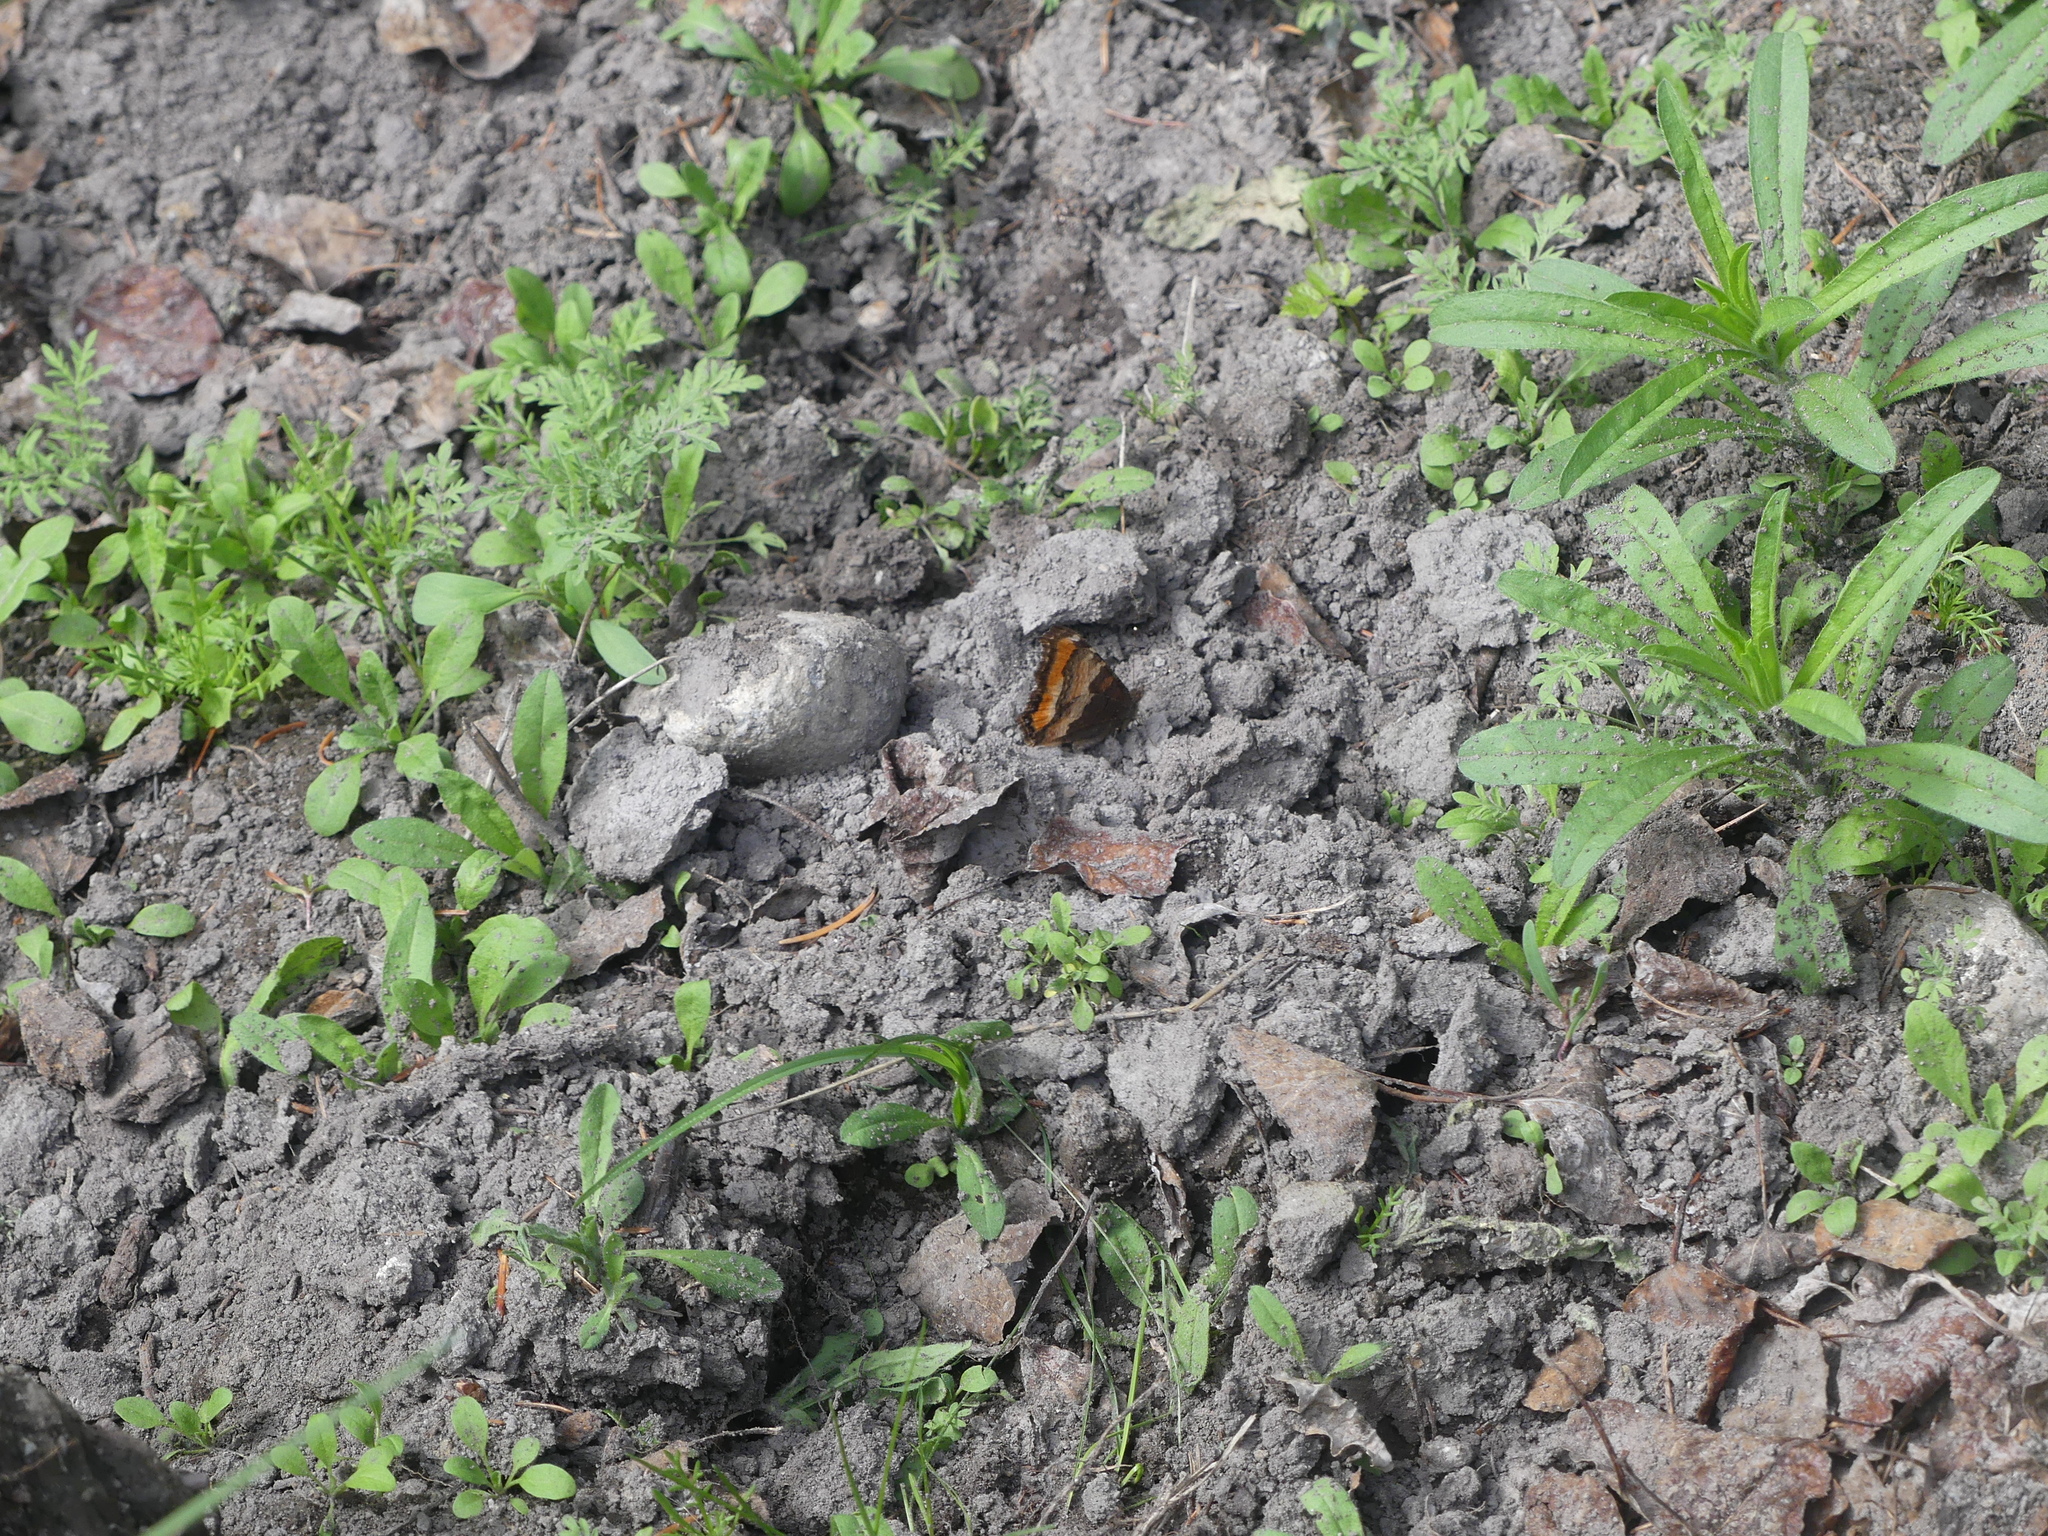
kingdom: Animalia
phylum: Arthropoda
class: Insecta
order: Lepidoptera
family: Nymphalidae
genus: Aglais
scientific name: Aglais milberti
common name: Milbert's tortoiseshell
